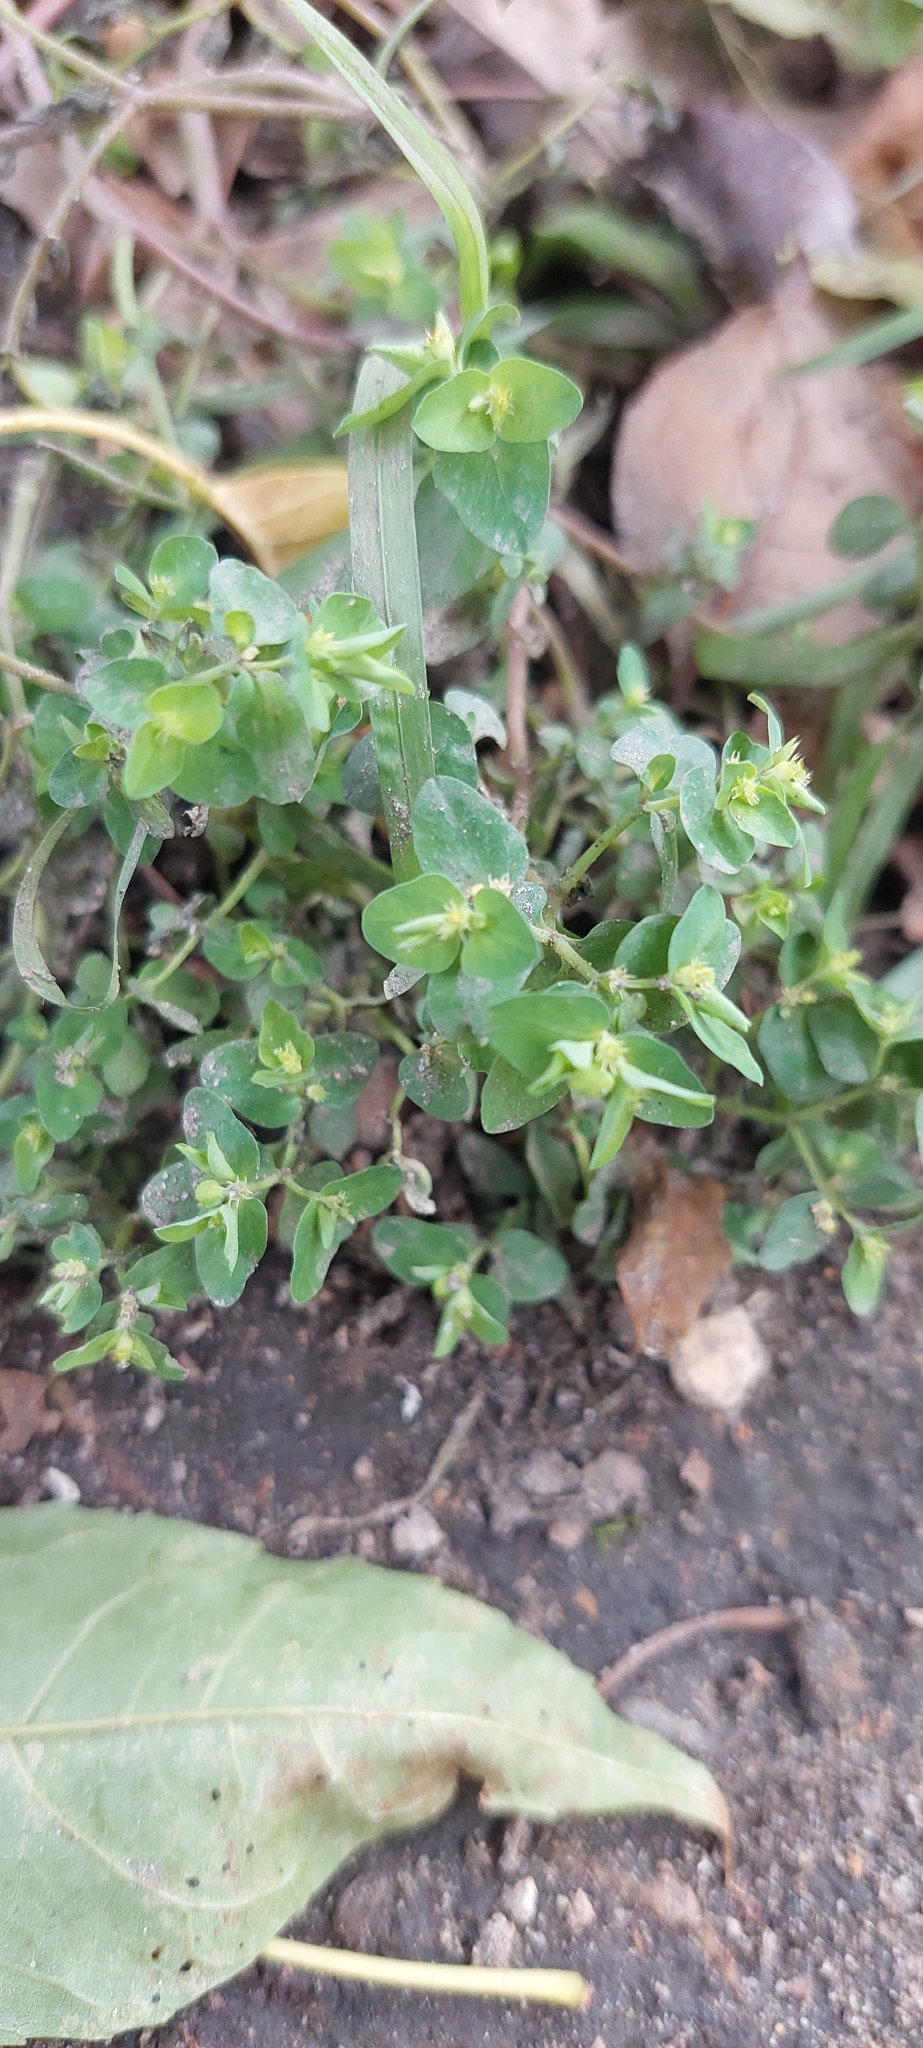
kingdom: Plantae
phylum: Tracheophyta
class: Magnoliopsida
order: Malpighiales
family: Euphorbiaceae
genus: Euphorbia
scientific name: Euphorbia peplus
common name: Petty spurge
